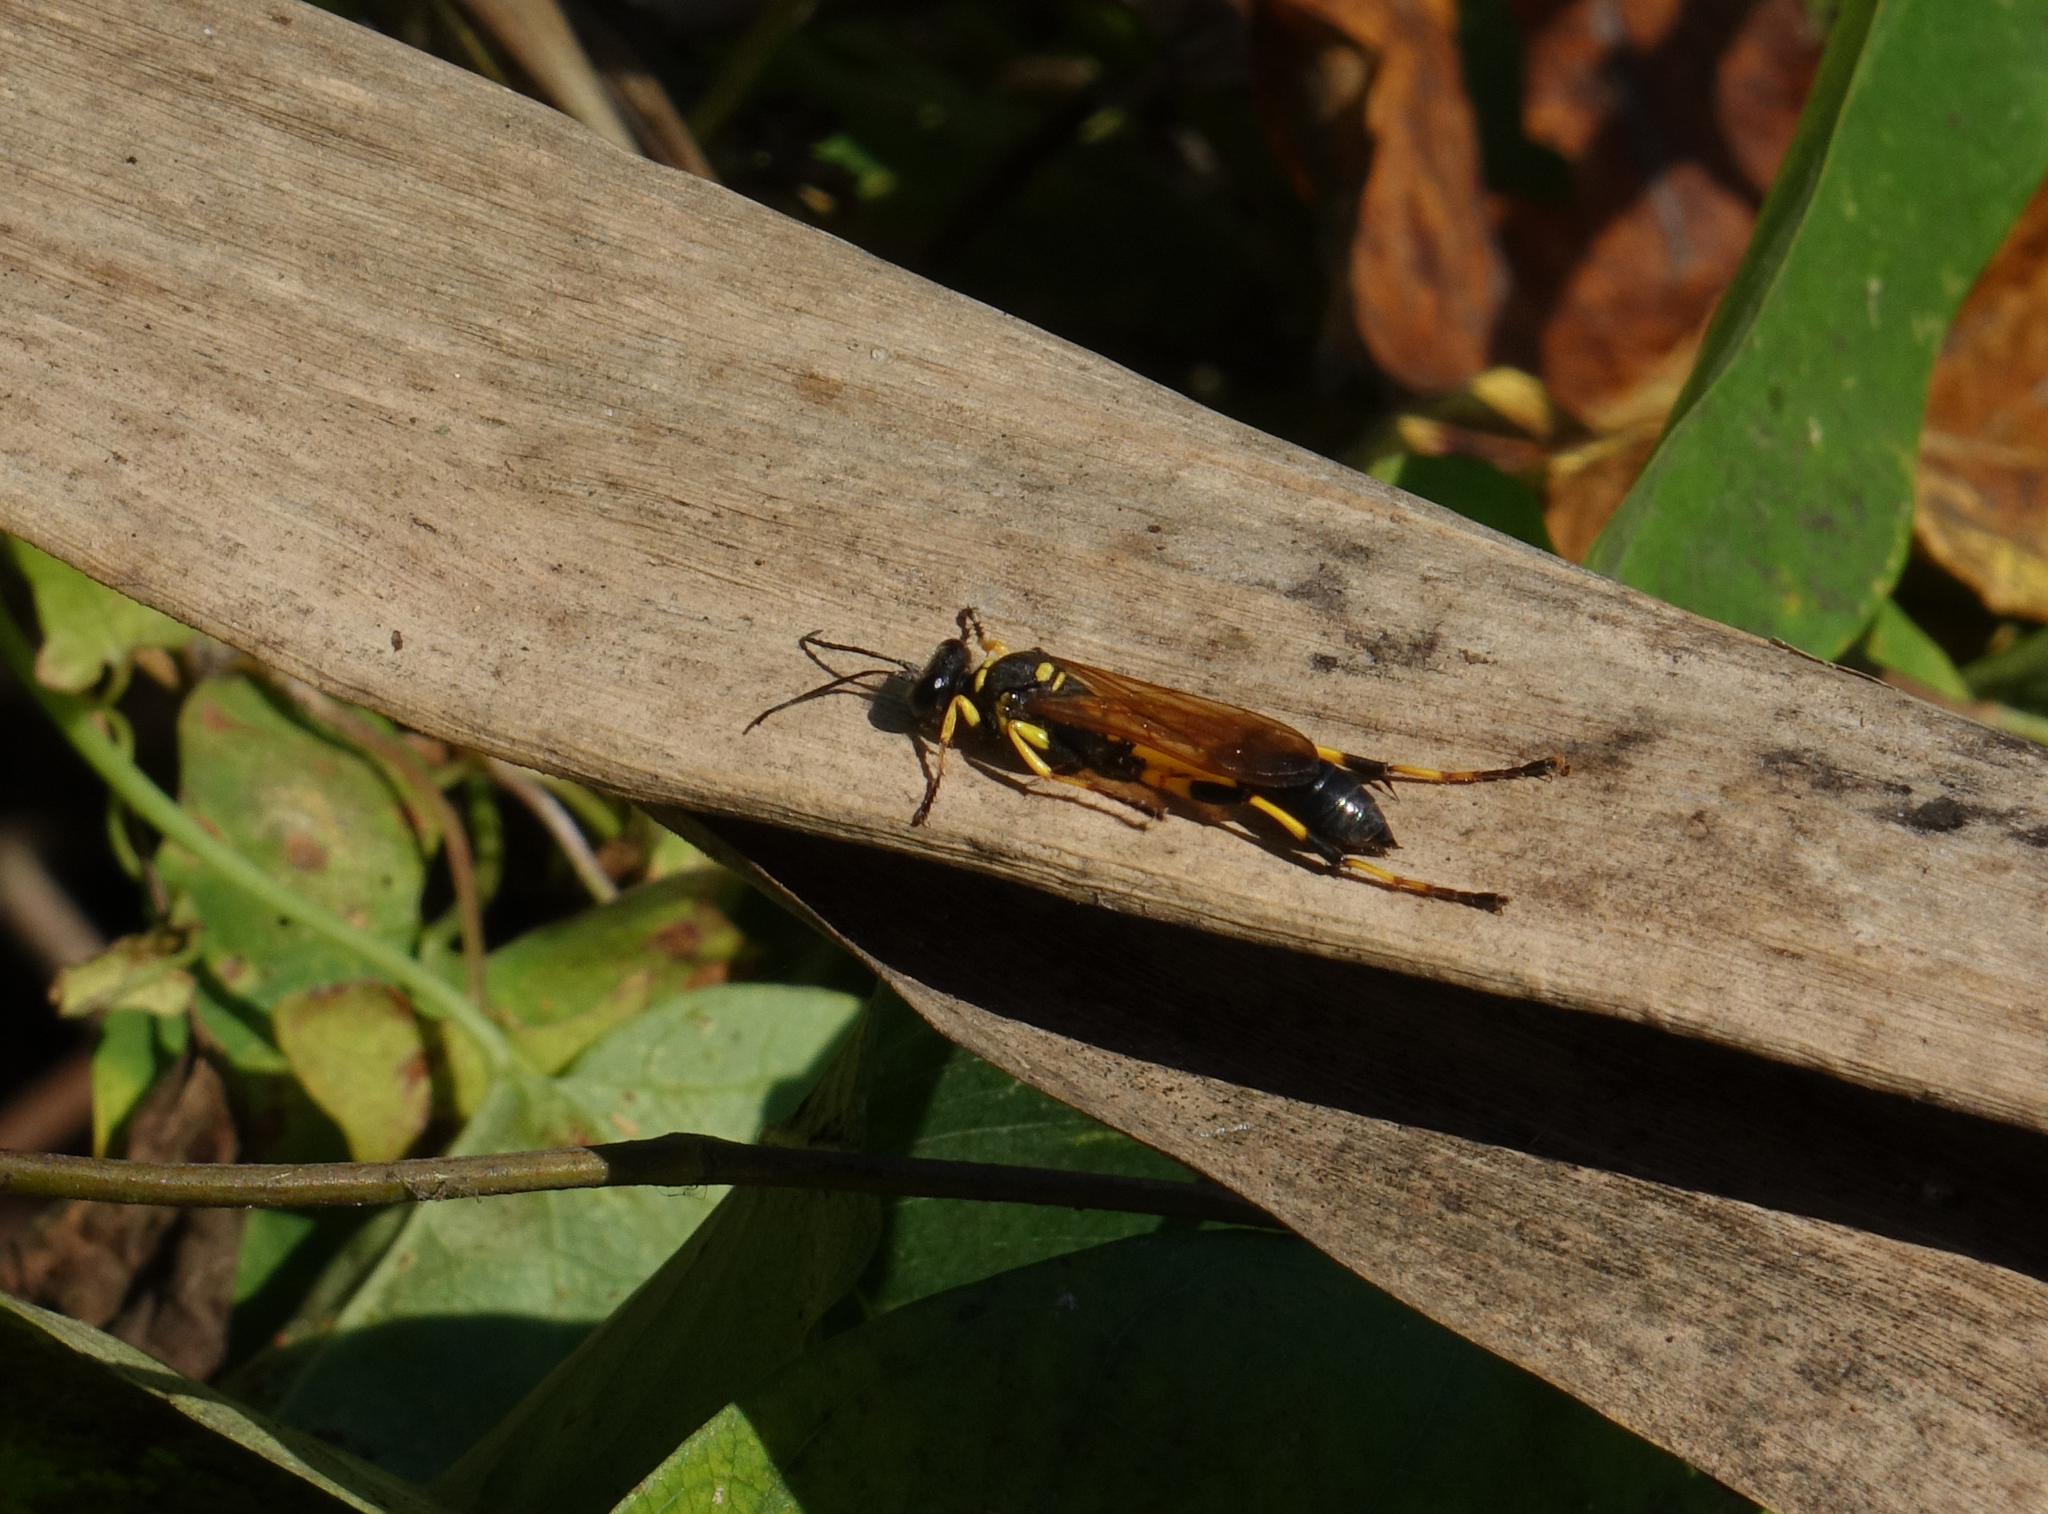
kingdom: Animalia
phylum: Arthropoda
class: Insecta
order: Hymenoptera
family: Sphecidae
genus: Sceliphron
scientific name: Sceliphron madraspatanum
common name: Mud dauber
